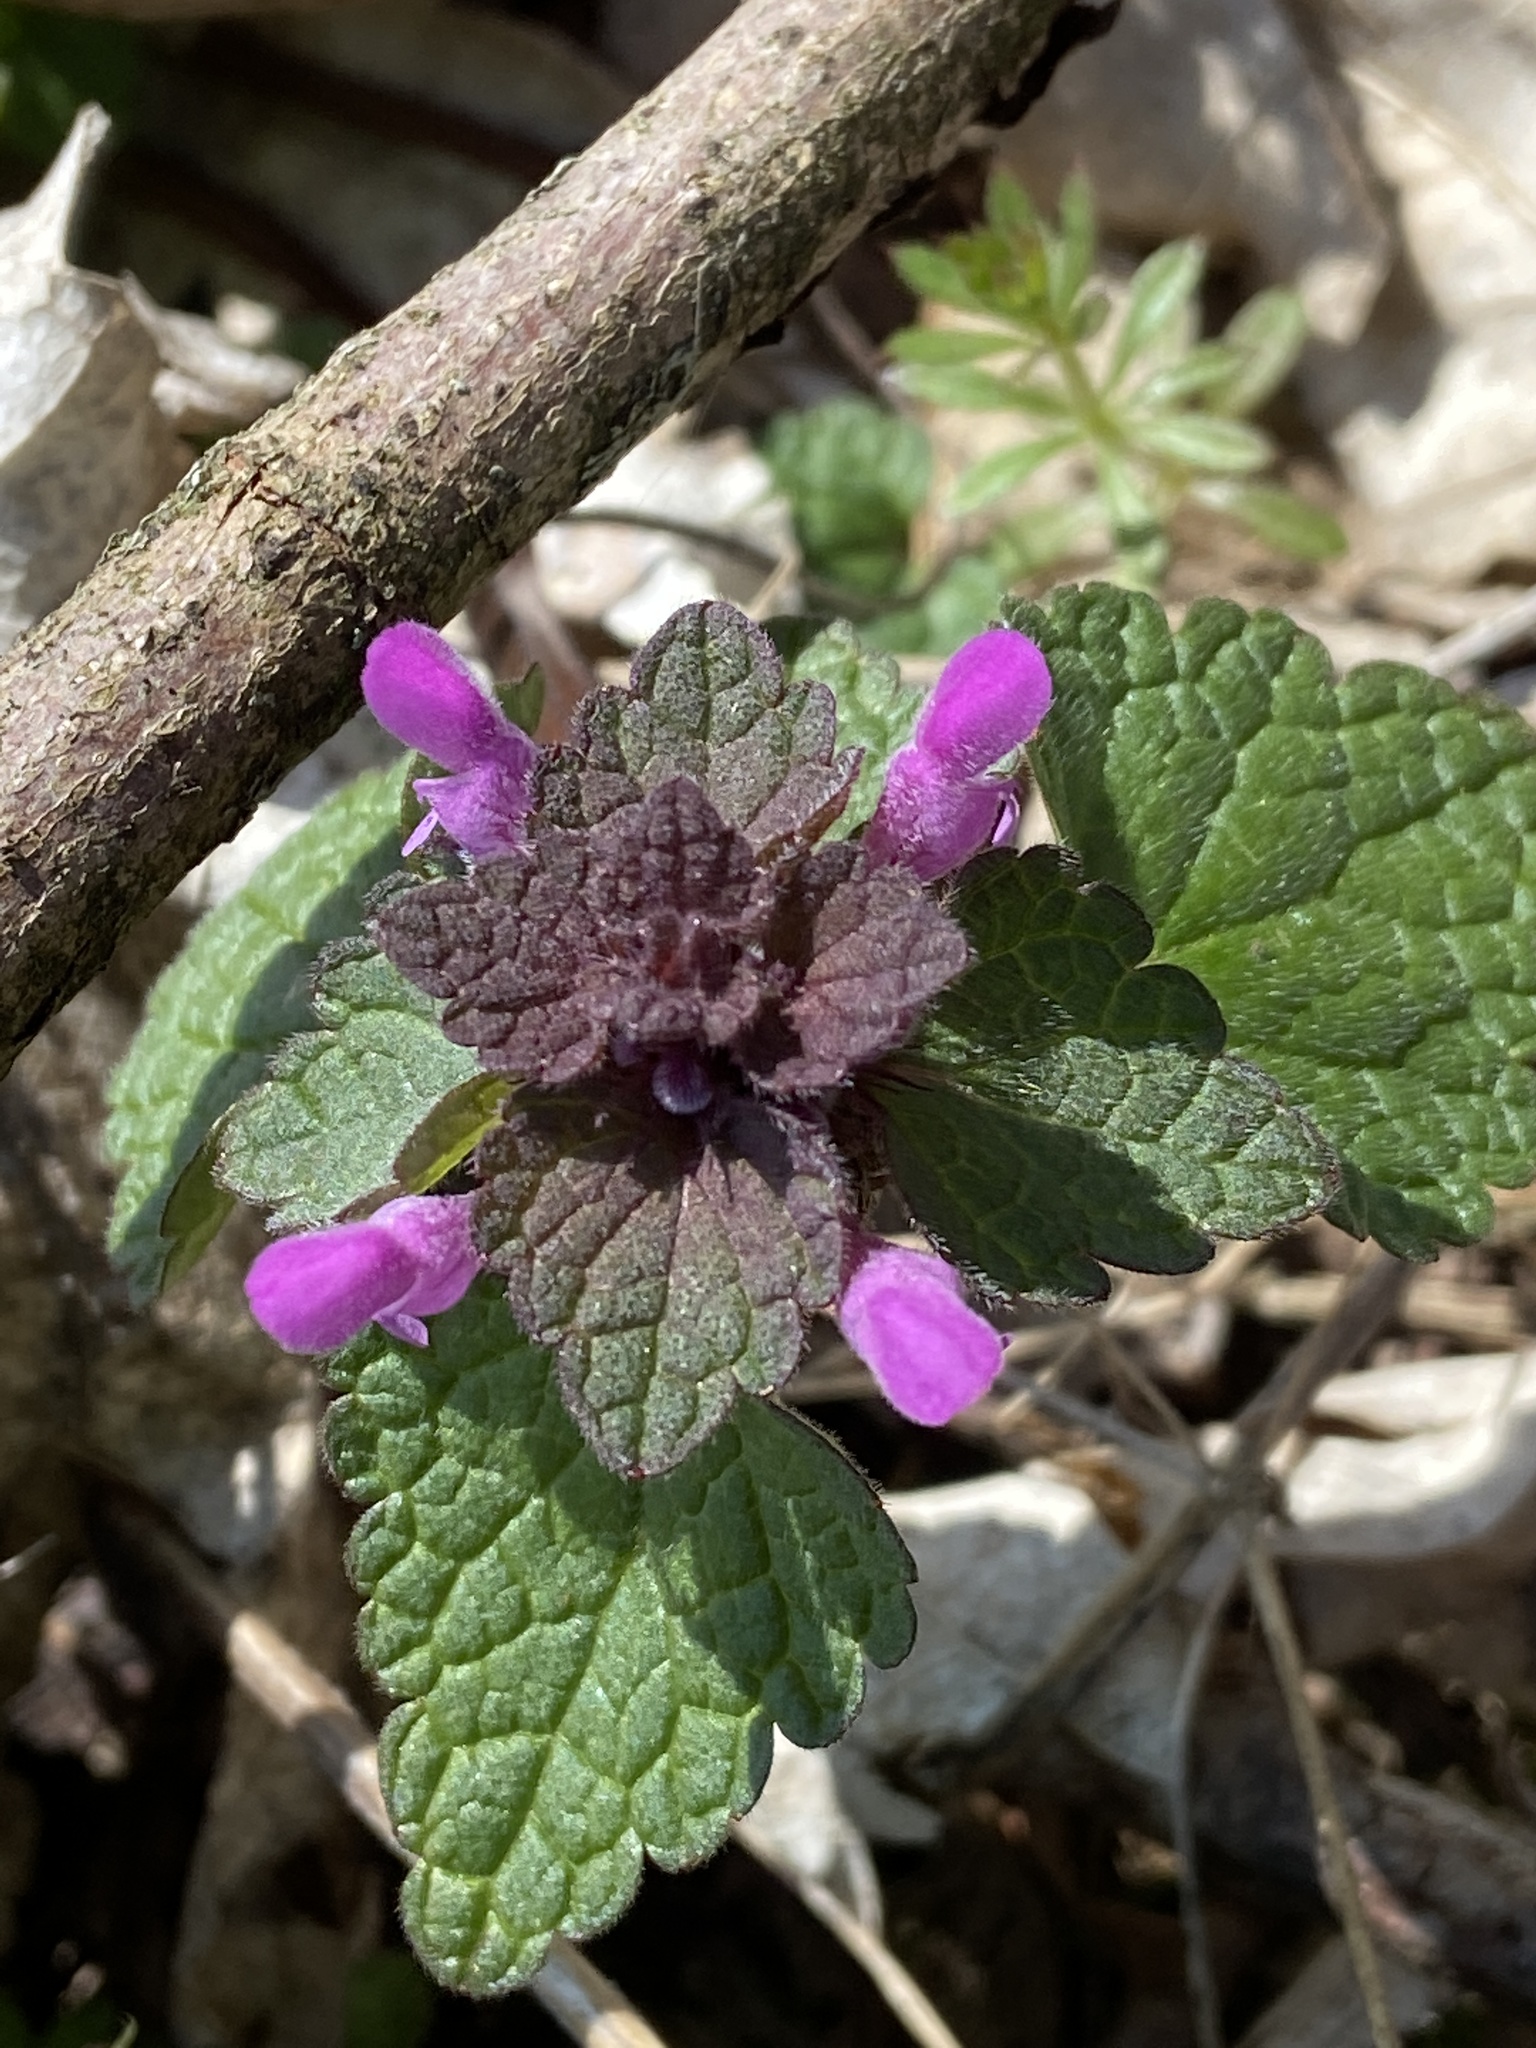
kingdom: Plantae
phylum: Tracheophyta
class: Magnoliopsida
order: Lamiales
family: Lamiaceae
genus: Lamium
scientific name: Lamium purpureum
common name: Red dead-nettle
